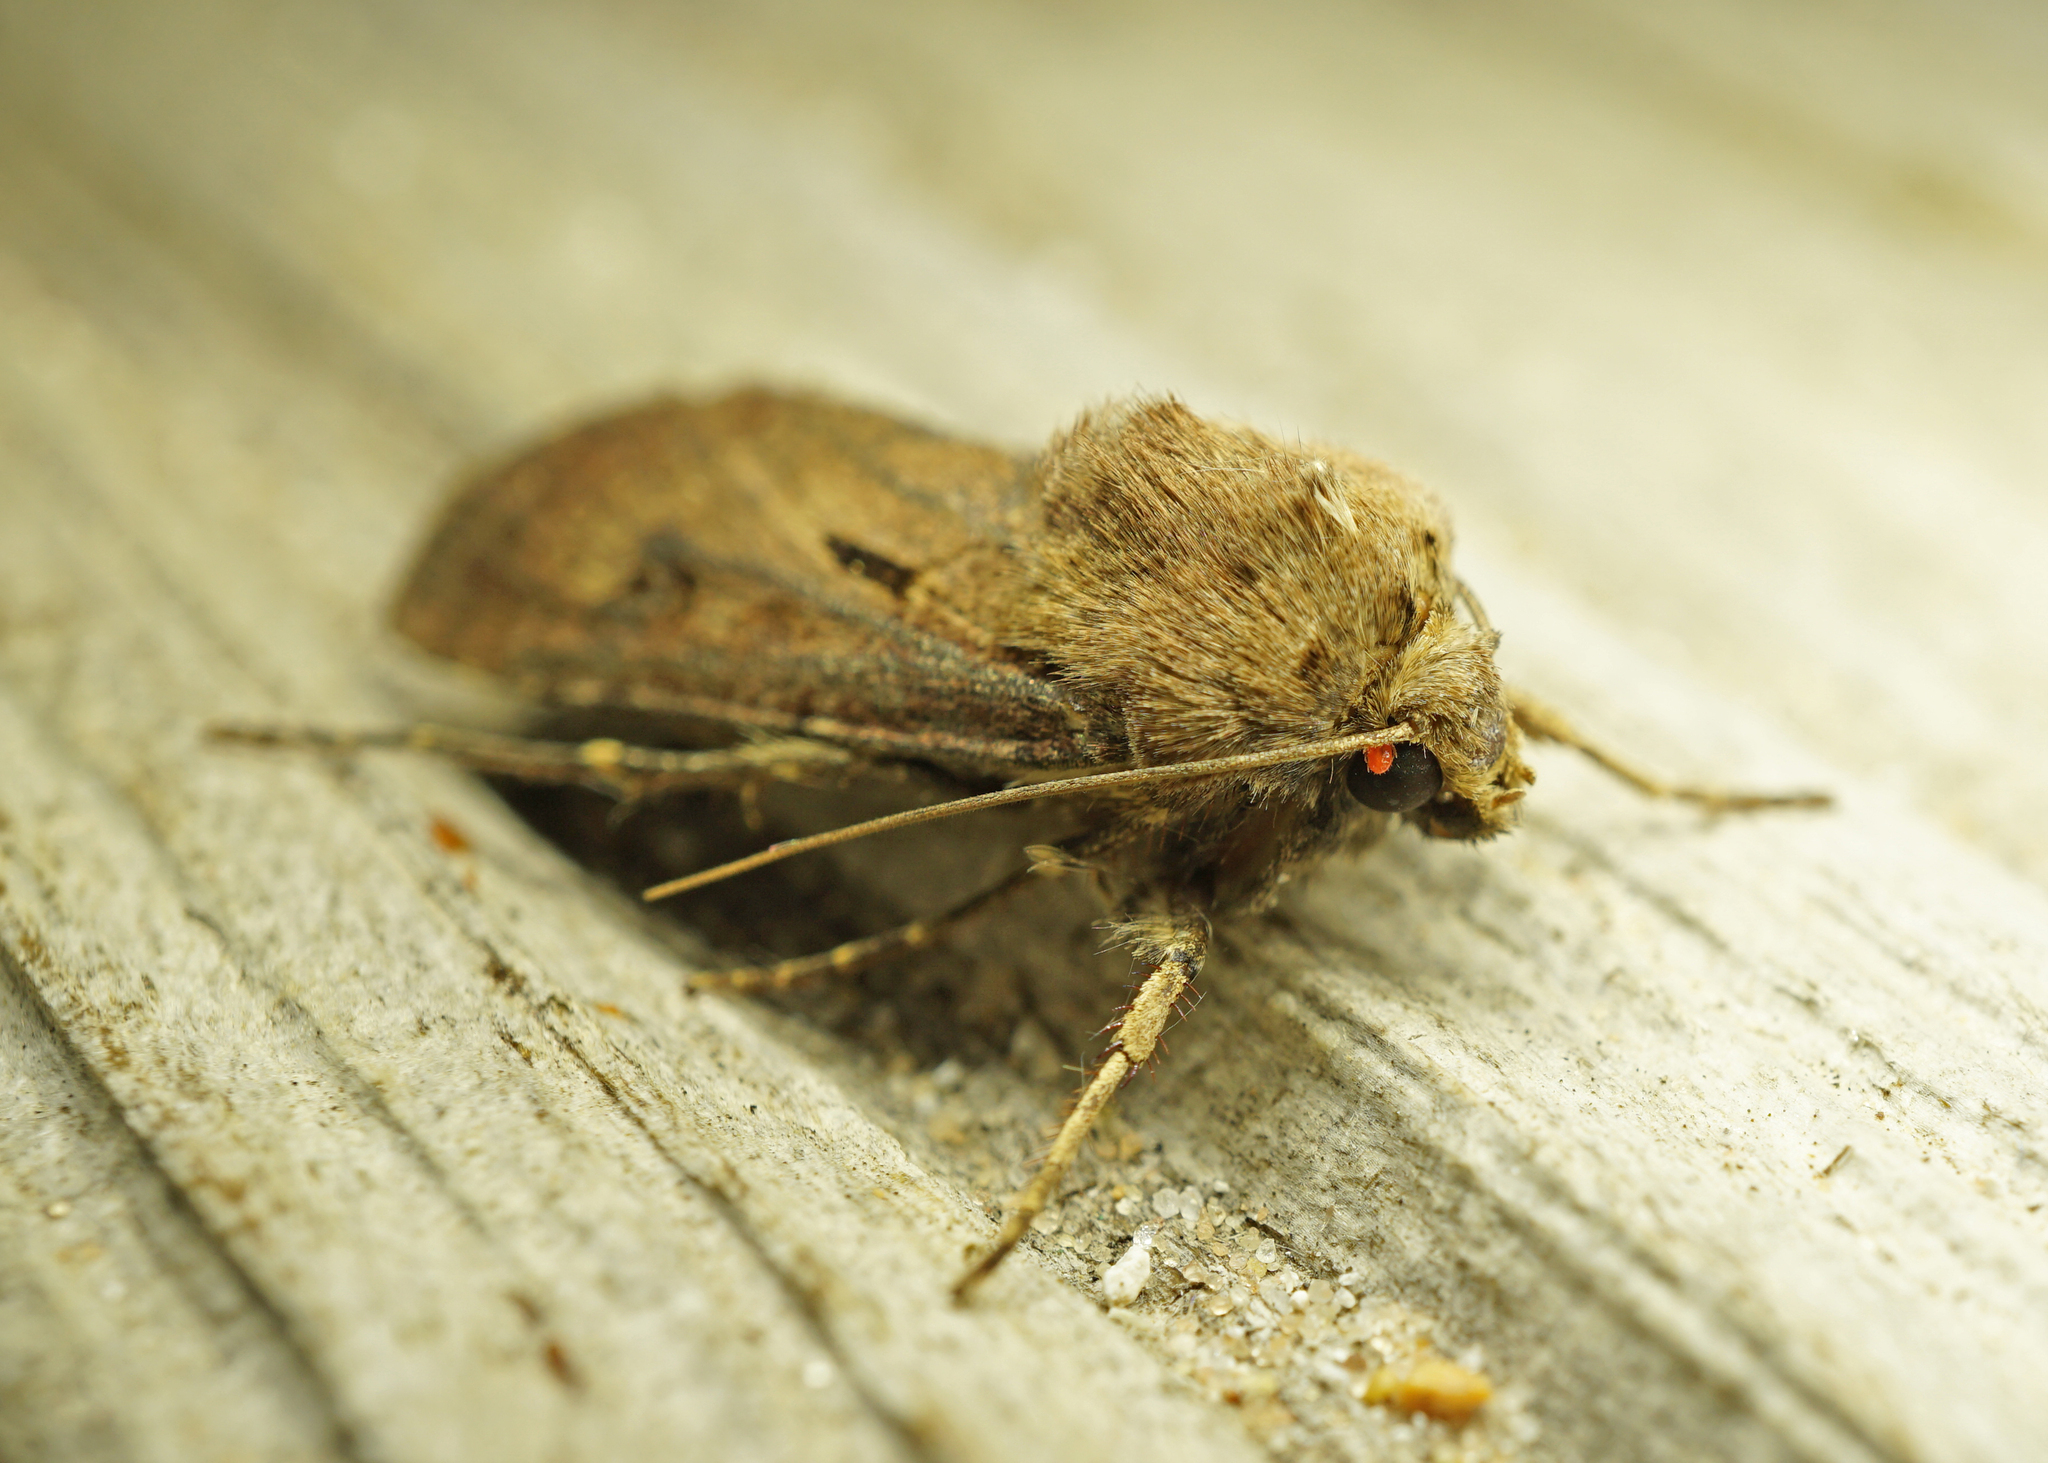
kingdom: Animalia
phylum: Arthropoda
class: Insecta
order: Lepidoptera
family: Noctuidae
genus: Agrotis
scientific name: Agrotis exclamationis
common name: Heart and dart
